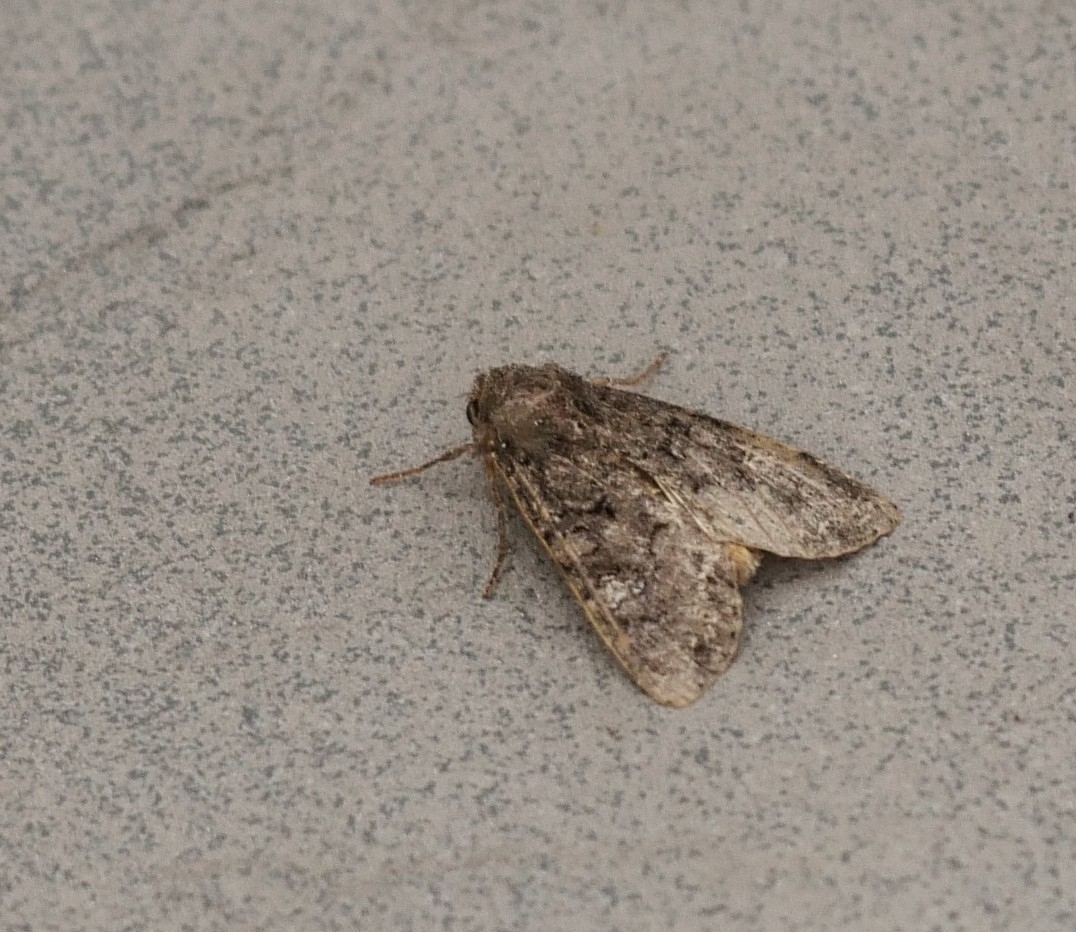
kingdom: Animalia
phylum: Arthropoda
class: Insecta
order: Lepidoptera
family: Noctuidae
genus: Mamestra
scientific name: Mamestra brassicae
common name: Cabbage moth
